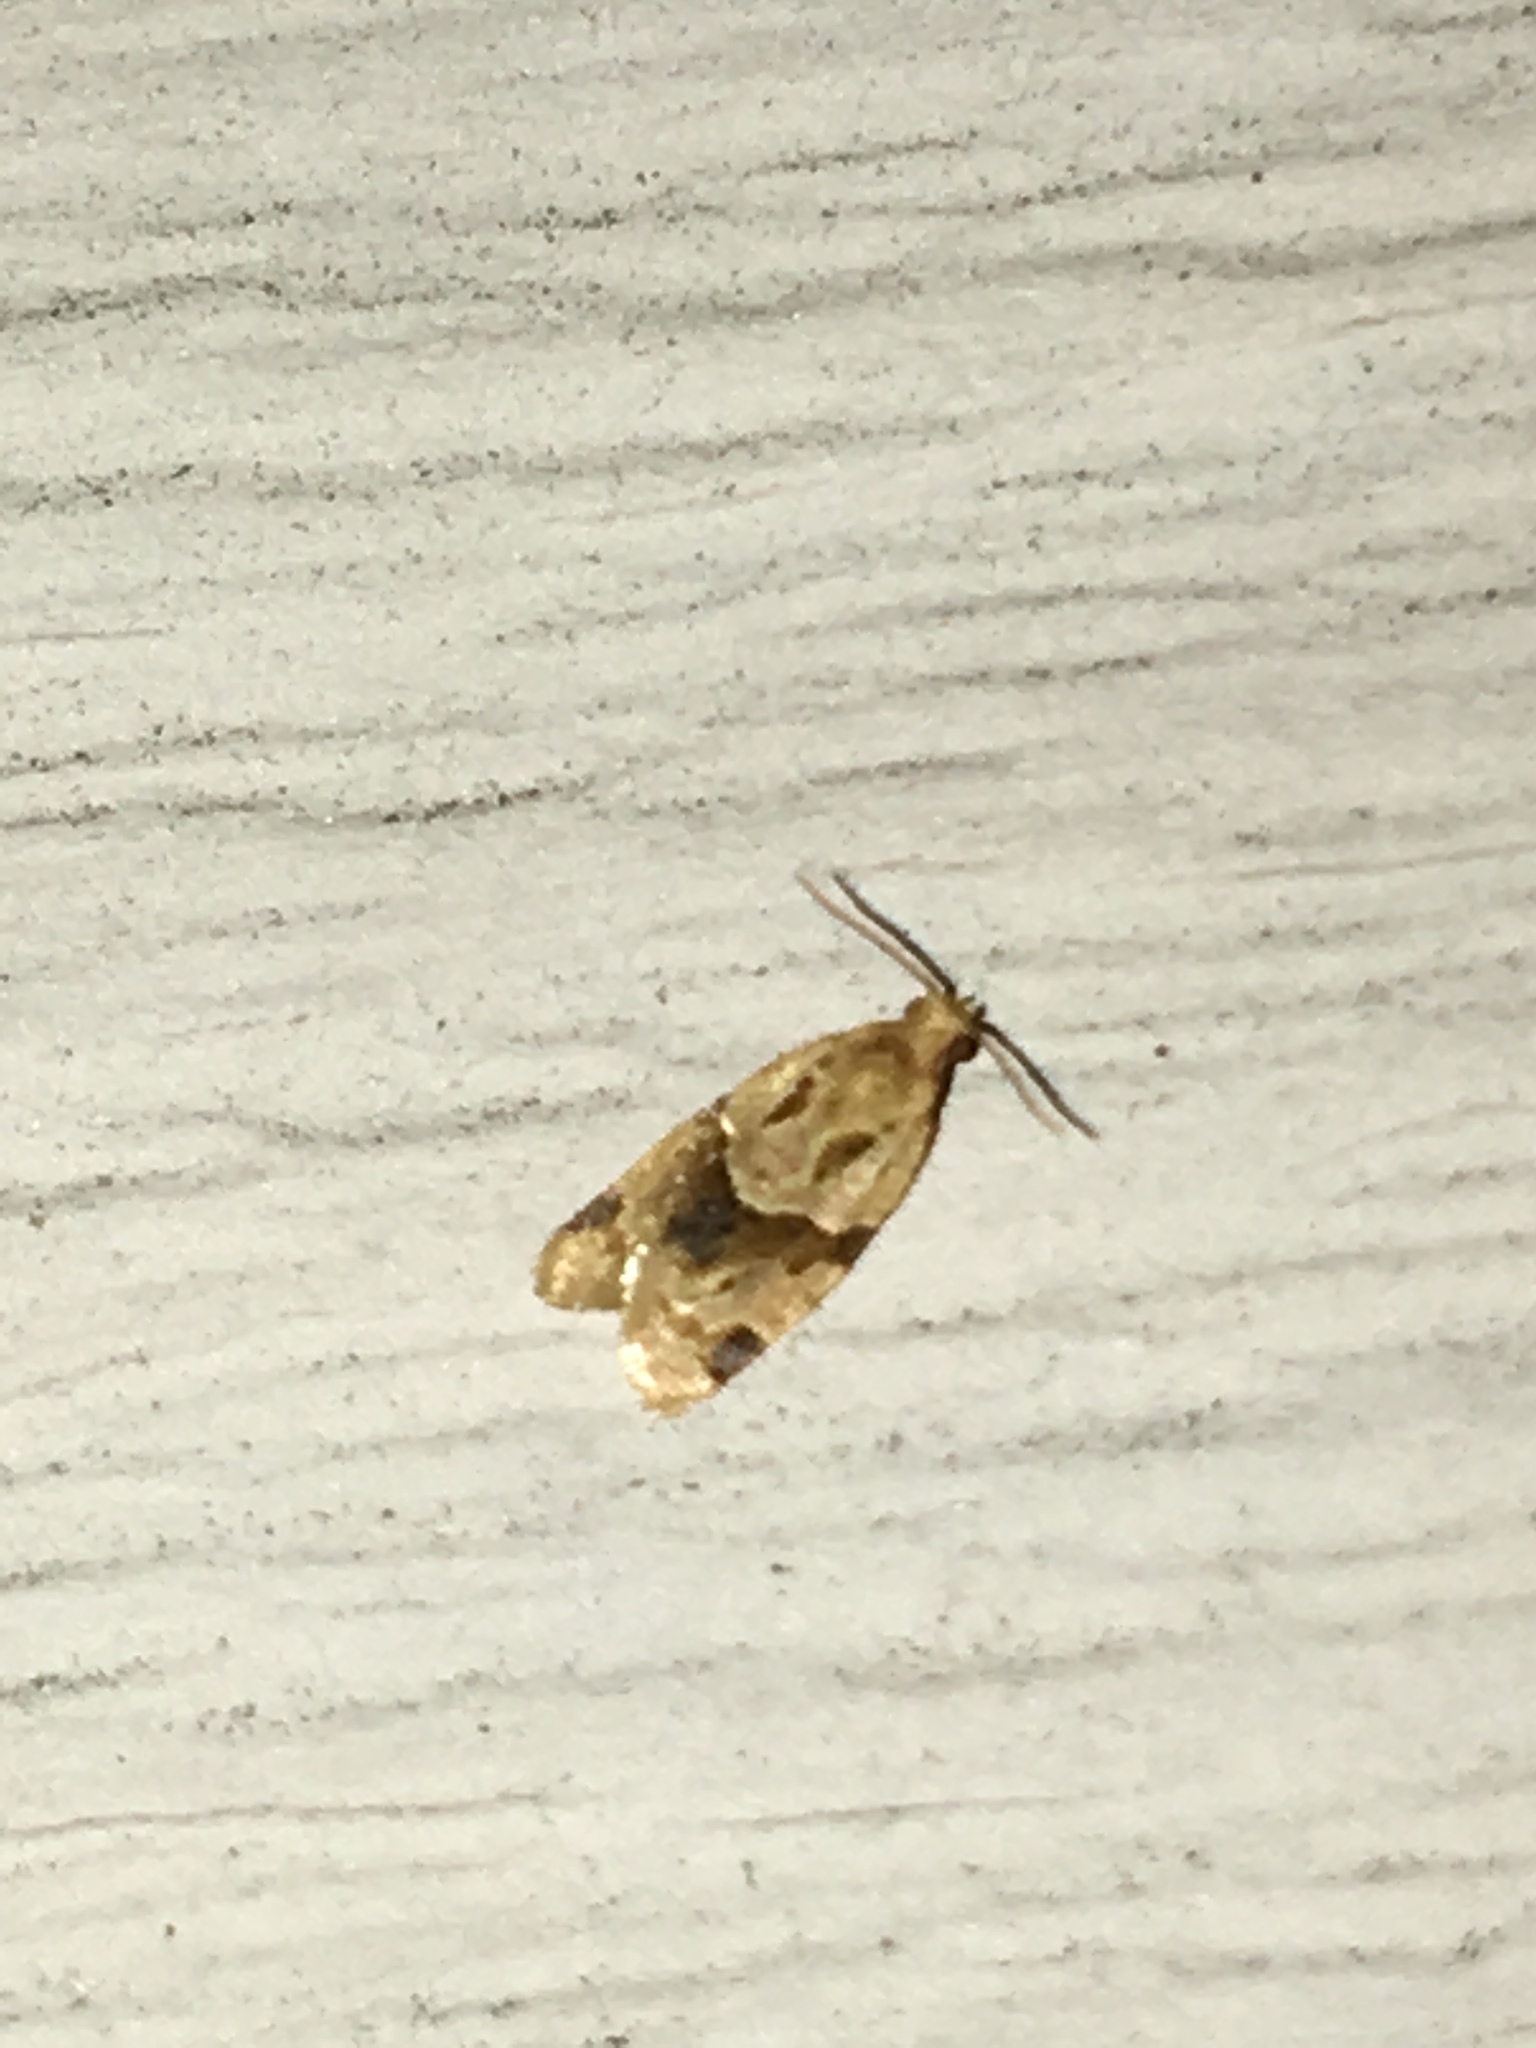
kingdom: Animalia
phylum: Arthropoda
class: Insecta
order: Lepidoptera
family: Tortricidae
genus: Clepsis
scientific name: Clepsis peritana
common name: Garden tortrix
